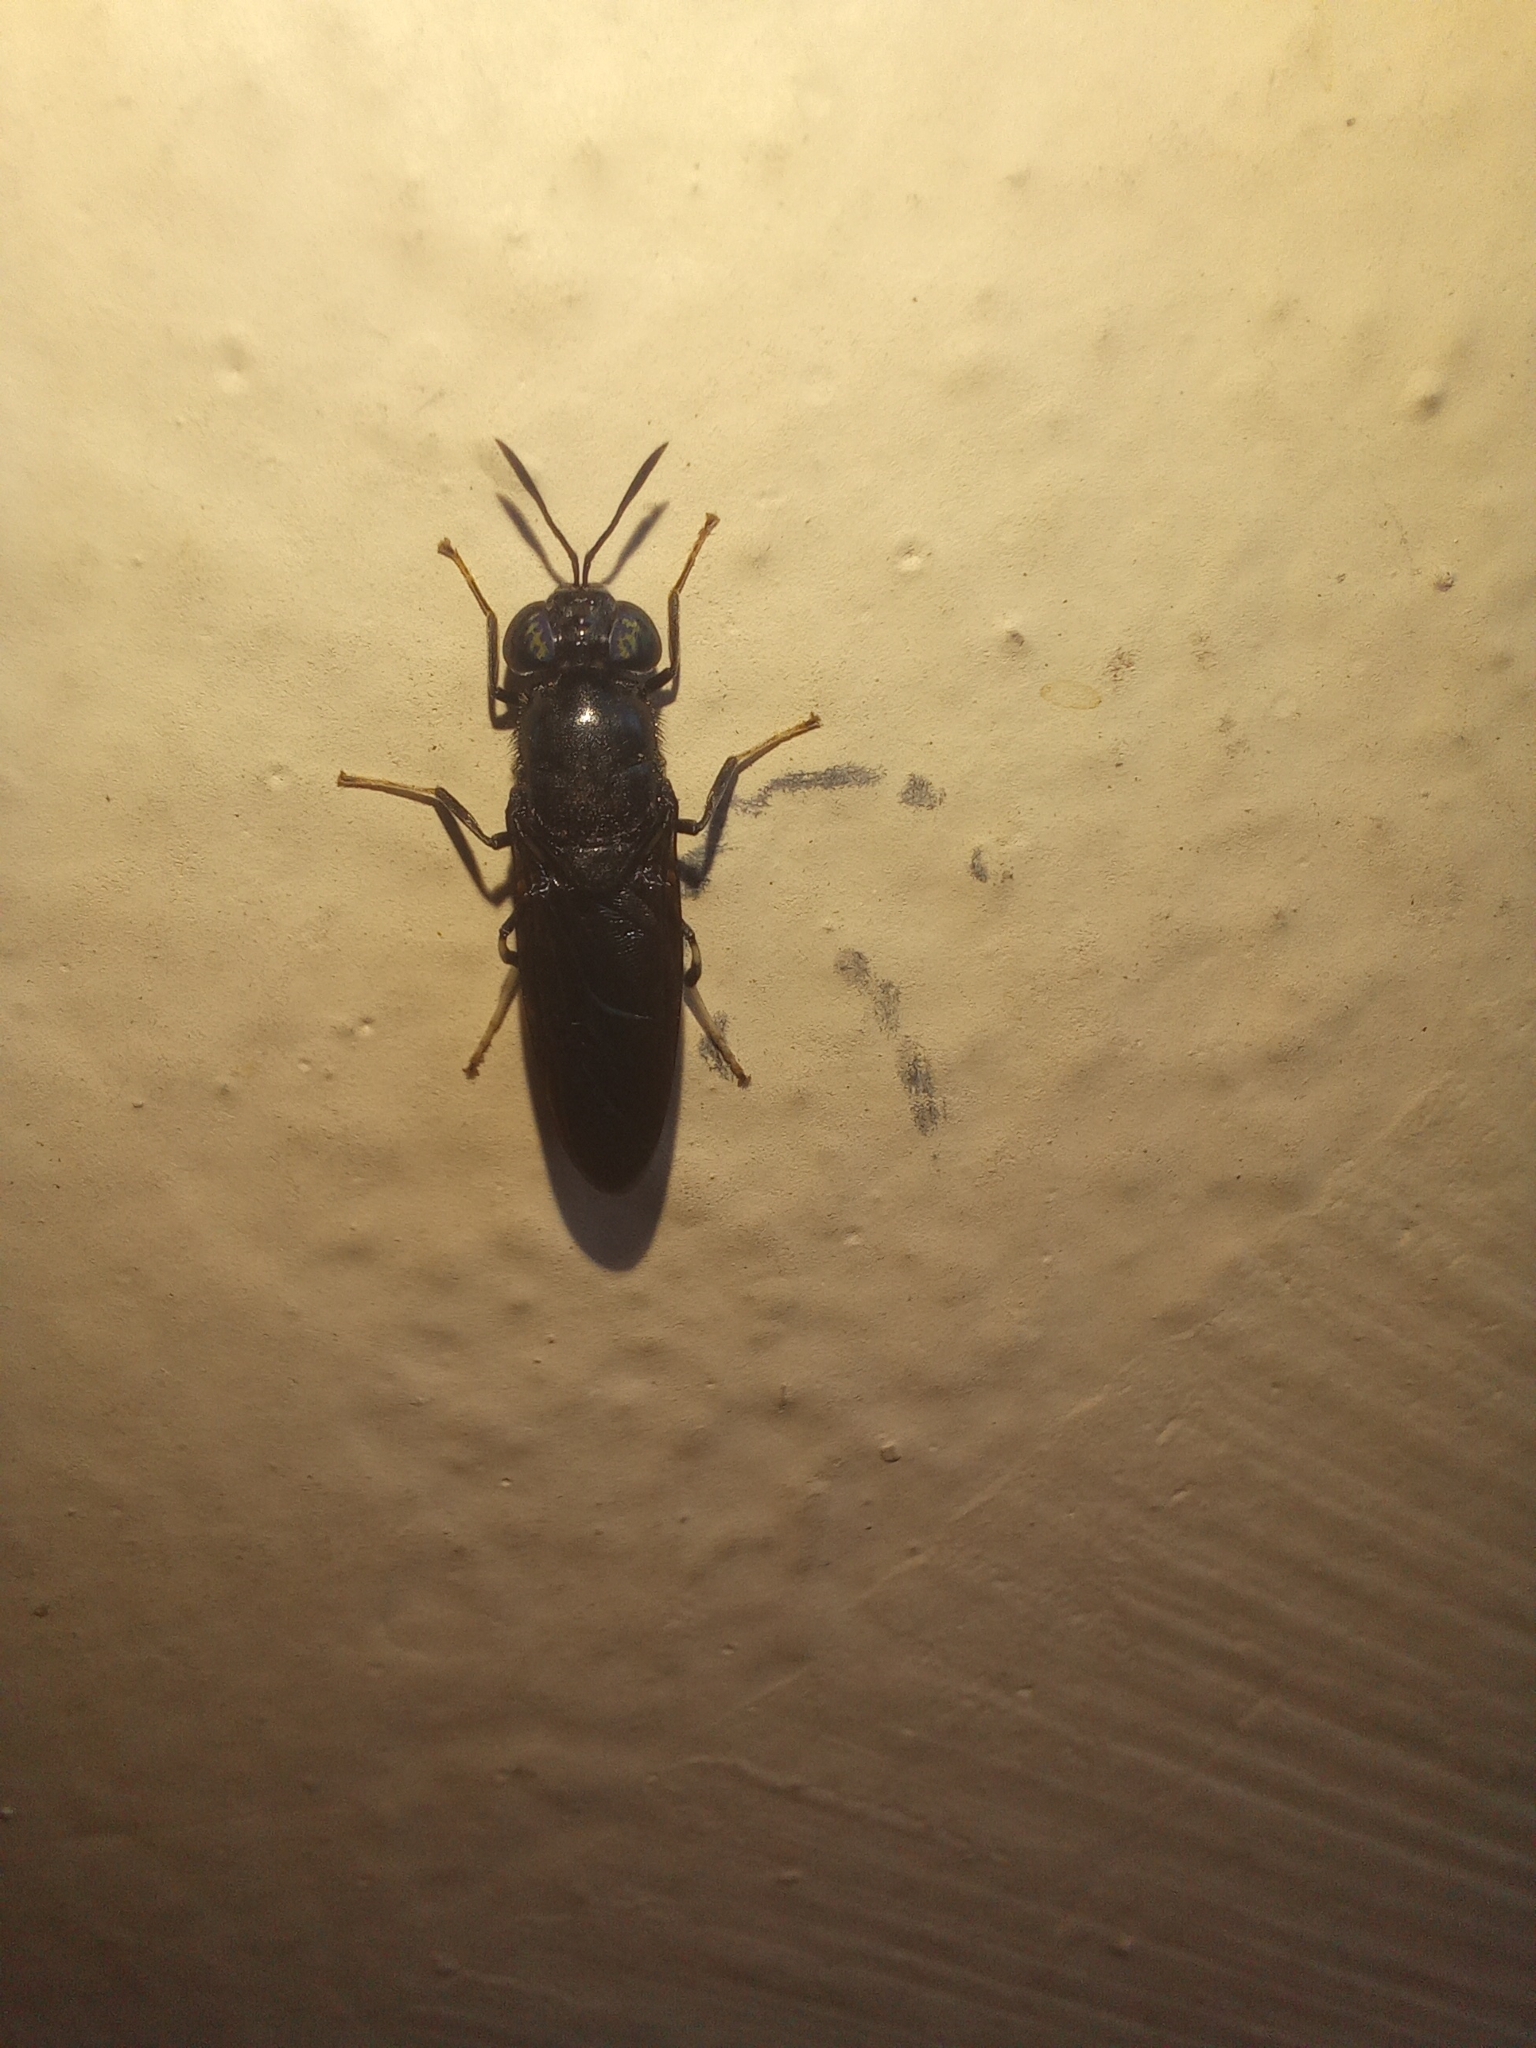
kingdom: Animalia
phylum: Arthropoda
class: Insecta
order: Diptera
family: Stratiomyidae
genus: Hermetia
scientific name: Hermetia illucens
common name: Black soldier fly
